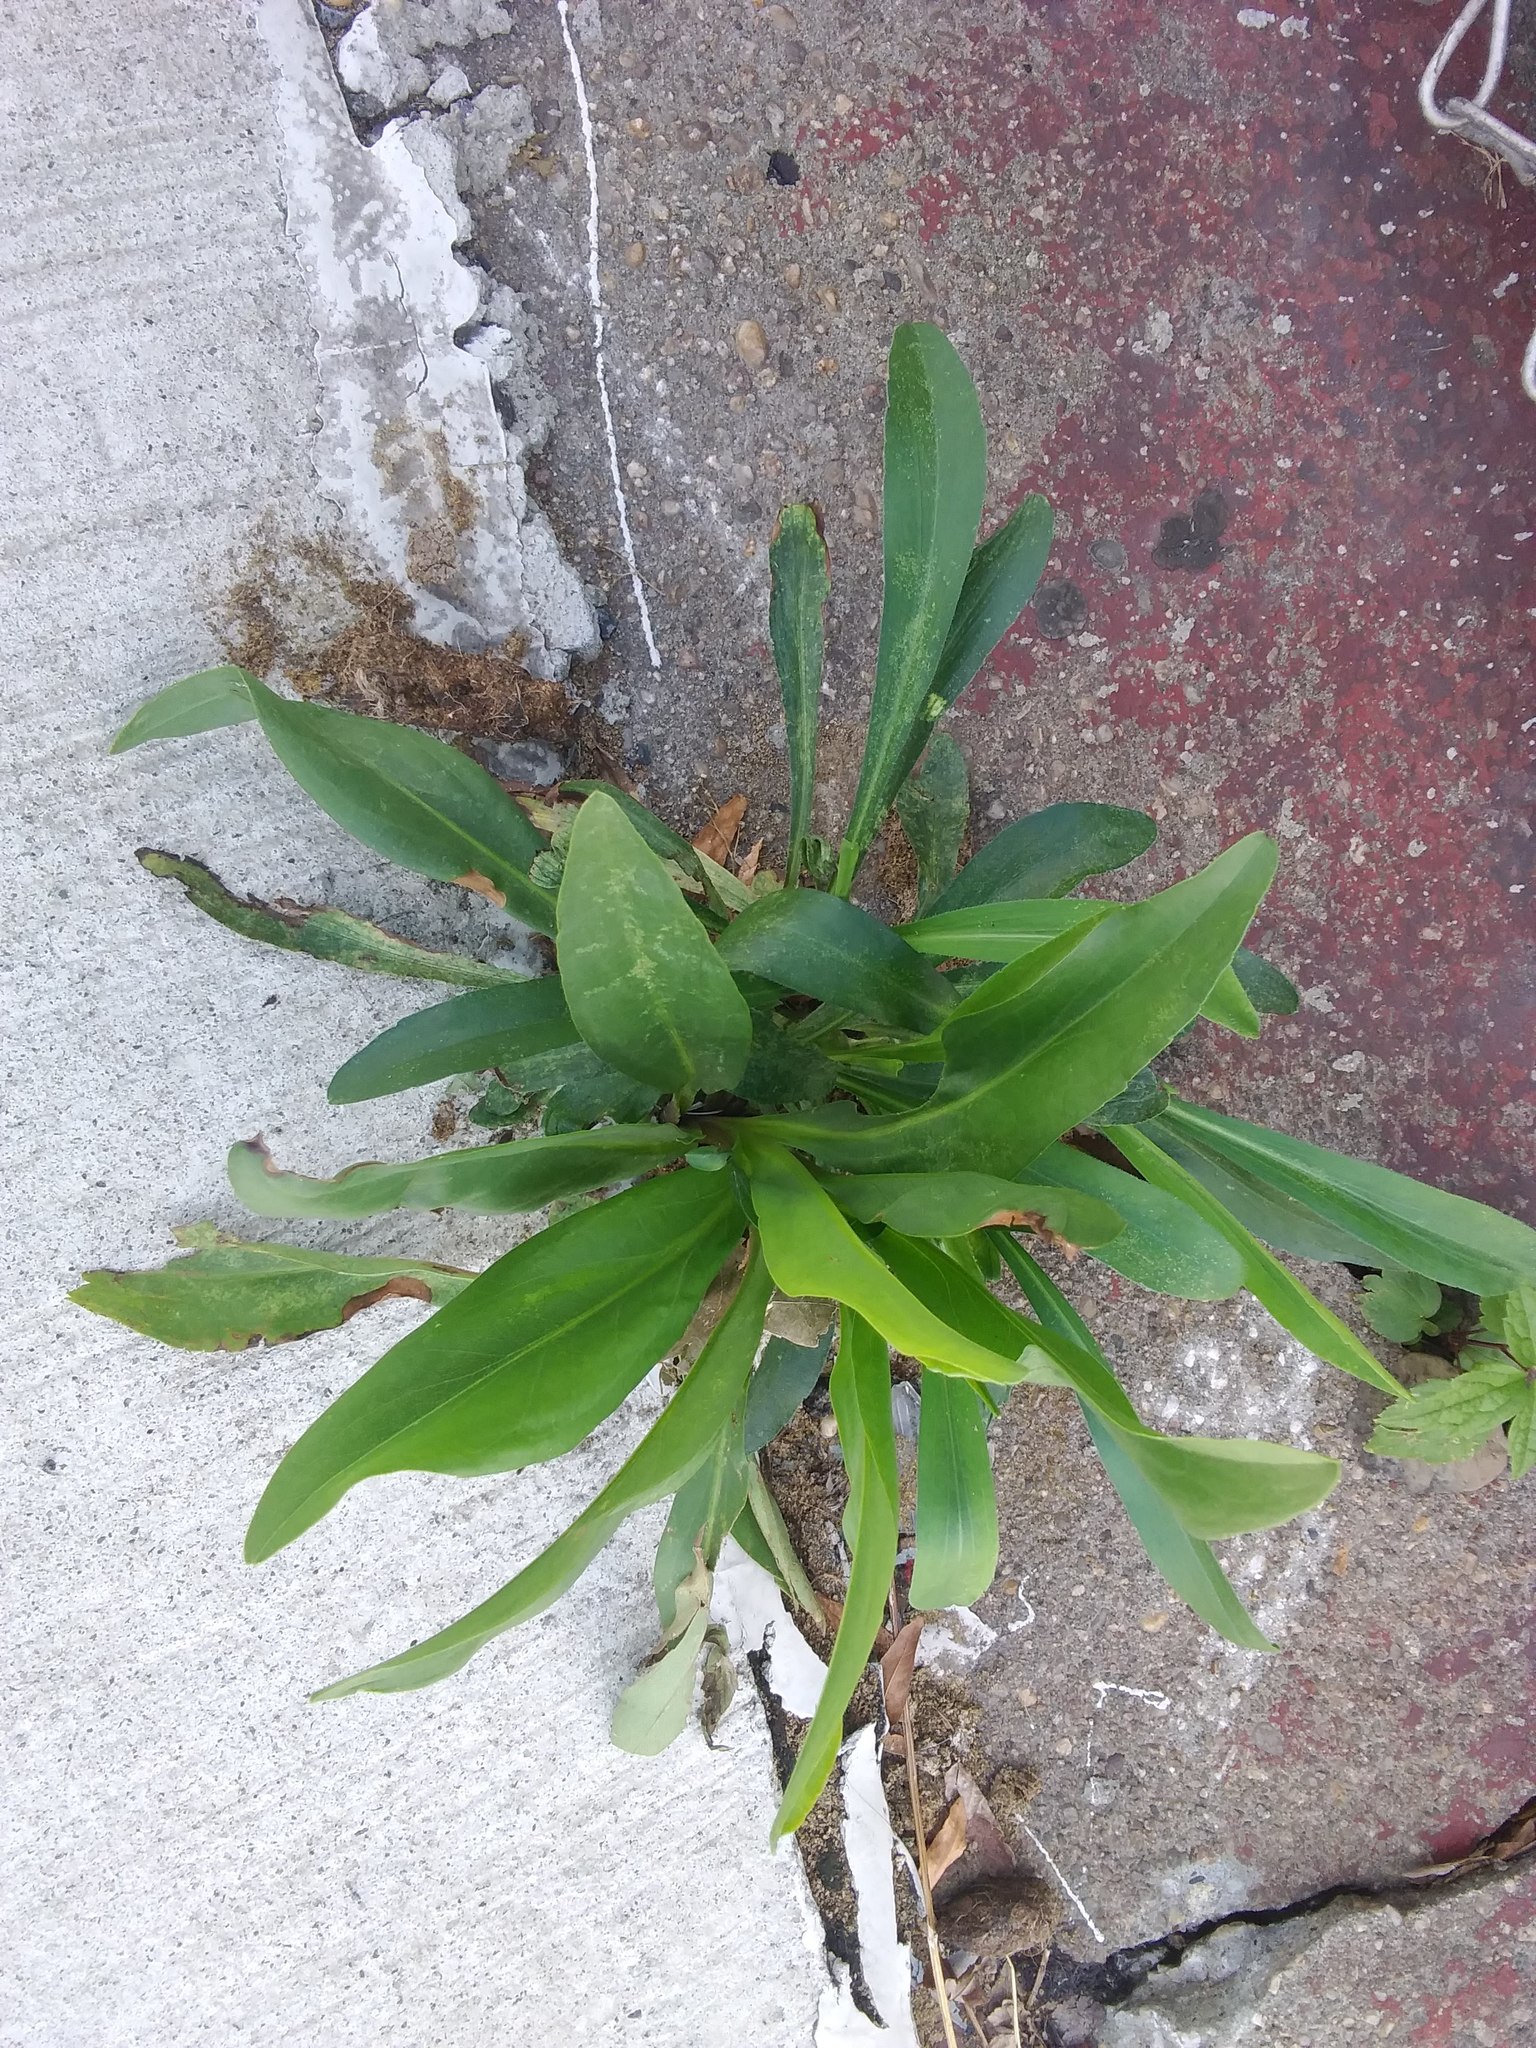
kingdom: Plantae
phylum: Tracheophyta
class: Magnoliopsida
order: Asterales
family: Asteraceae
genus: Solidago
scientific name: Solidago sempervirens
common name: Salt-marsh goldenrod
